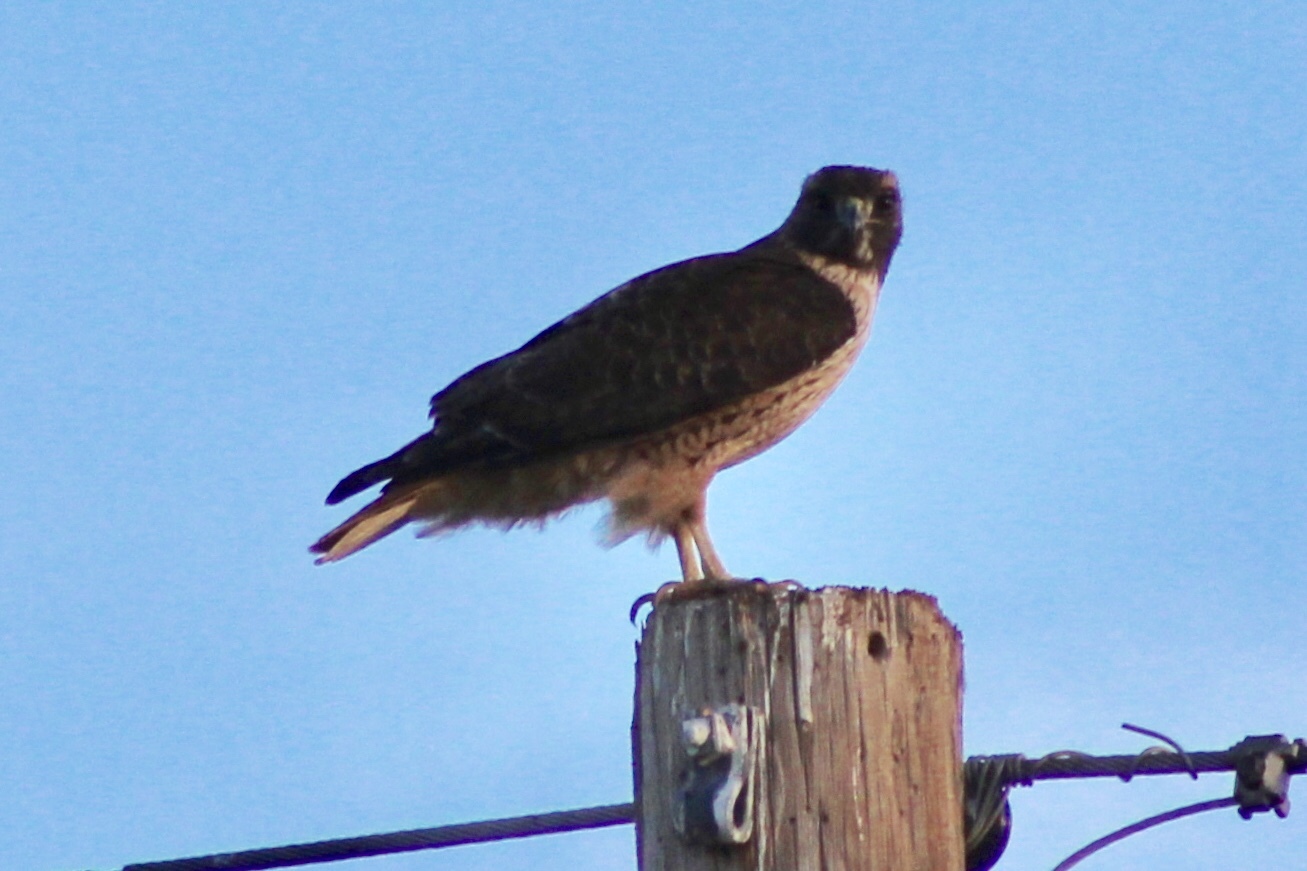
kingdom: Animalia
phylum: Chordata
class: Aves
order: Accipitriformes
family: Accipitridae
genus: Buteo
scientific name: Buteo jamaicensis
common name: Red-tailed hawk
